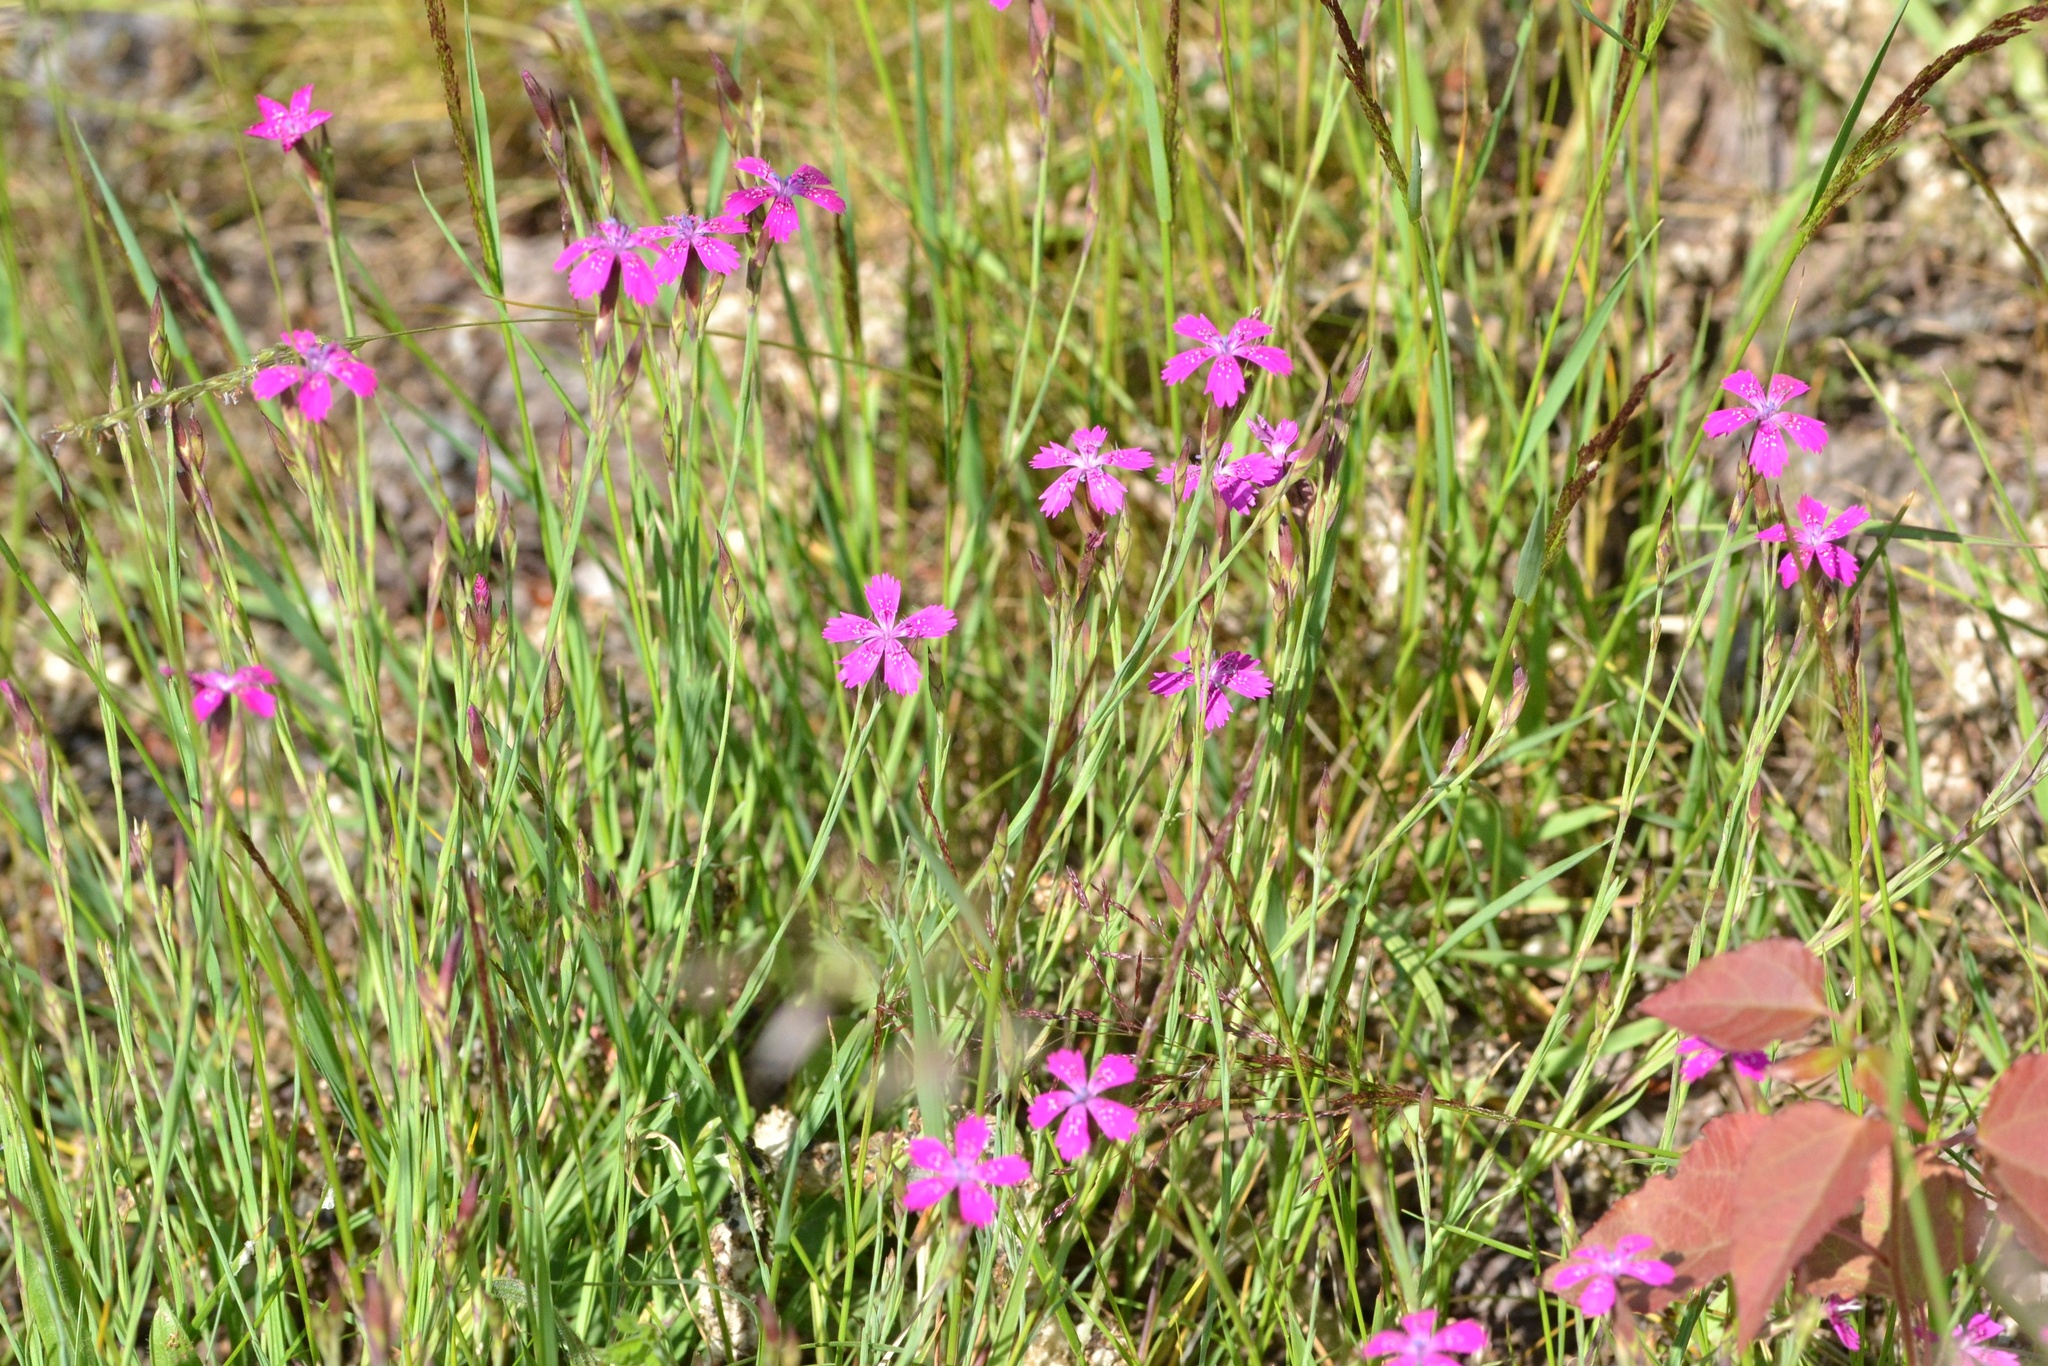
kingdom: Plantae
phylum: Tracheophyta
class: Magnoliopsida
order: Caryophyllales
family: Caryophyllaceae
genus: Dianthus
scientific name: Dianthus deltoides
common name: Maiden pink
